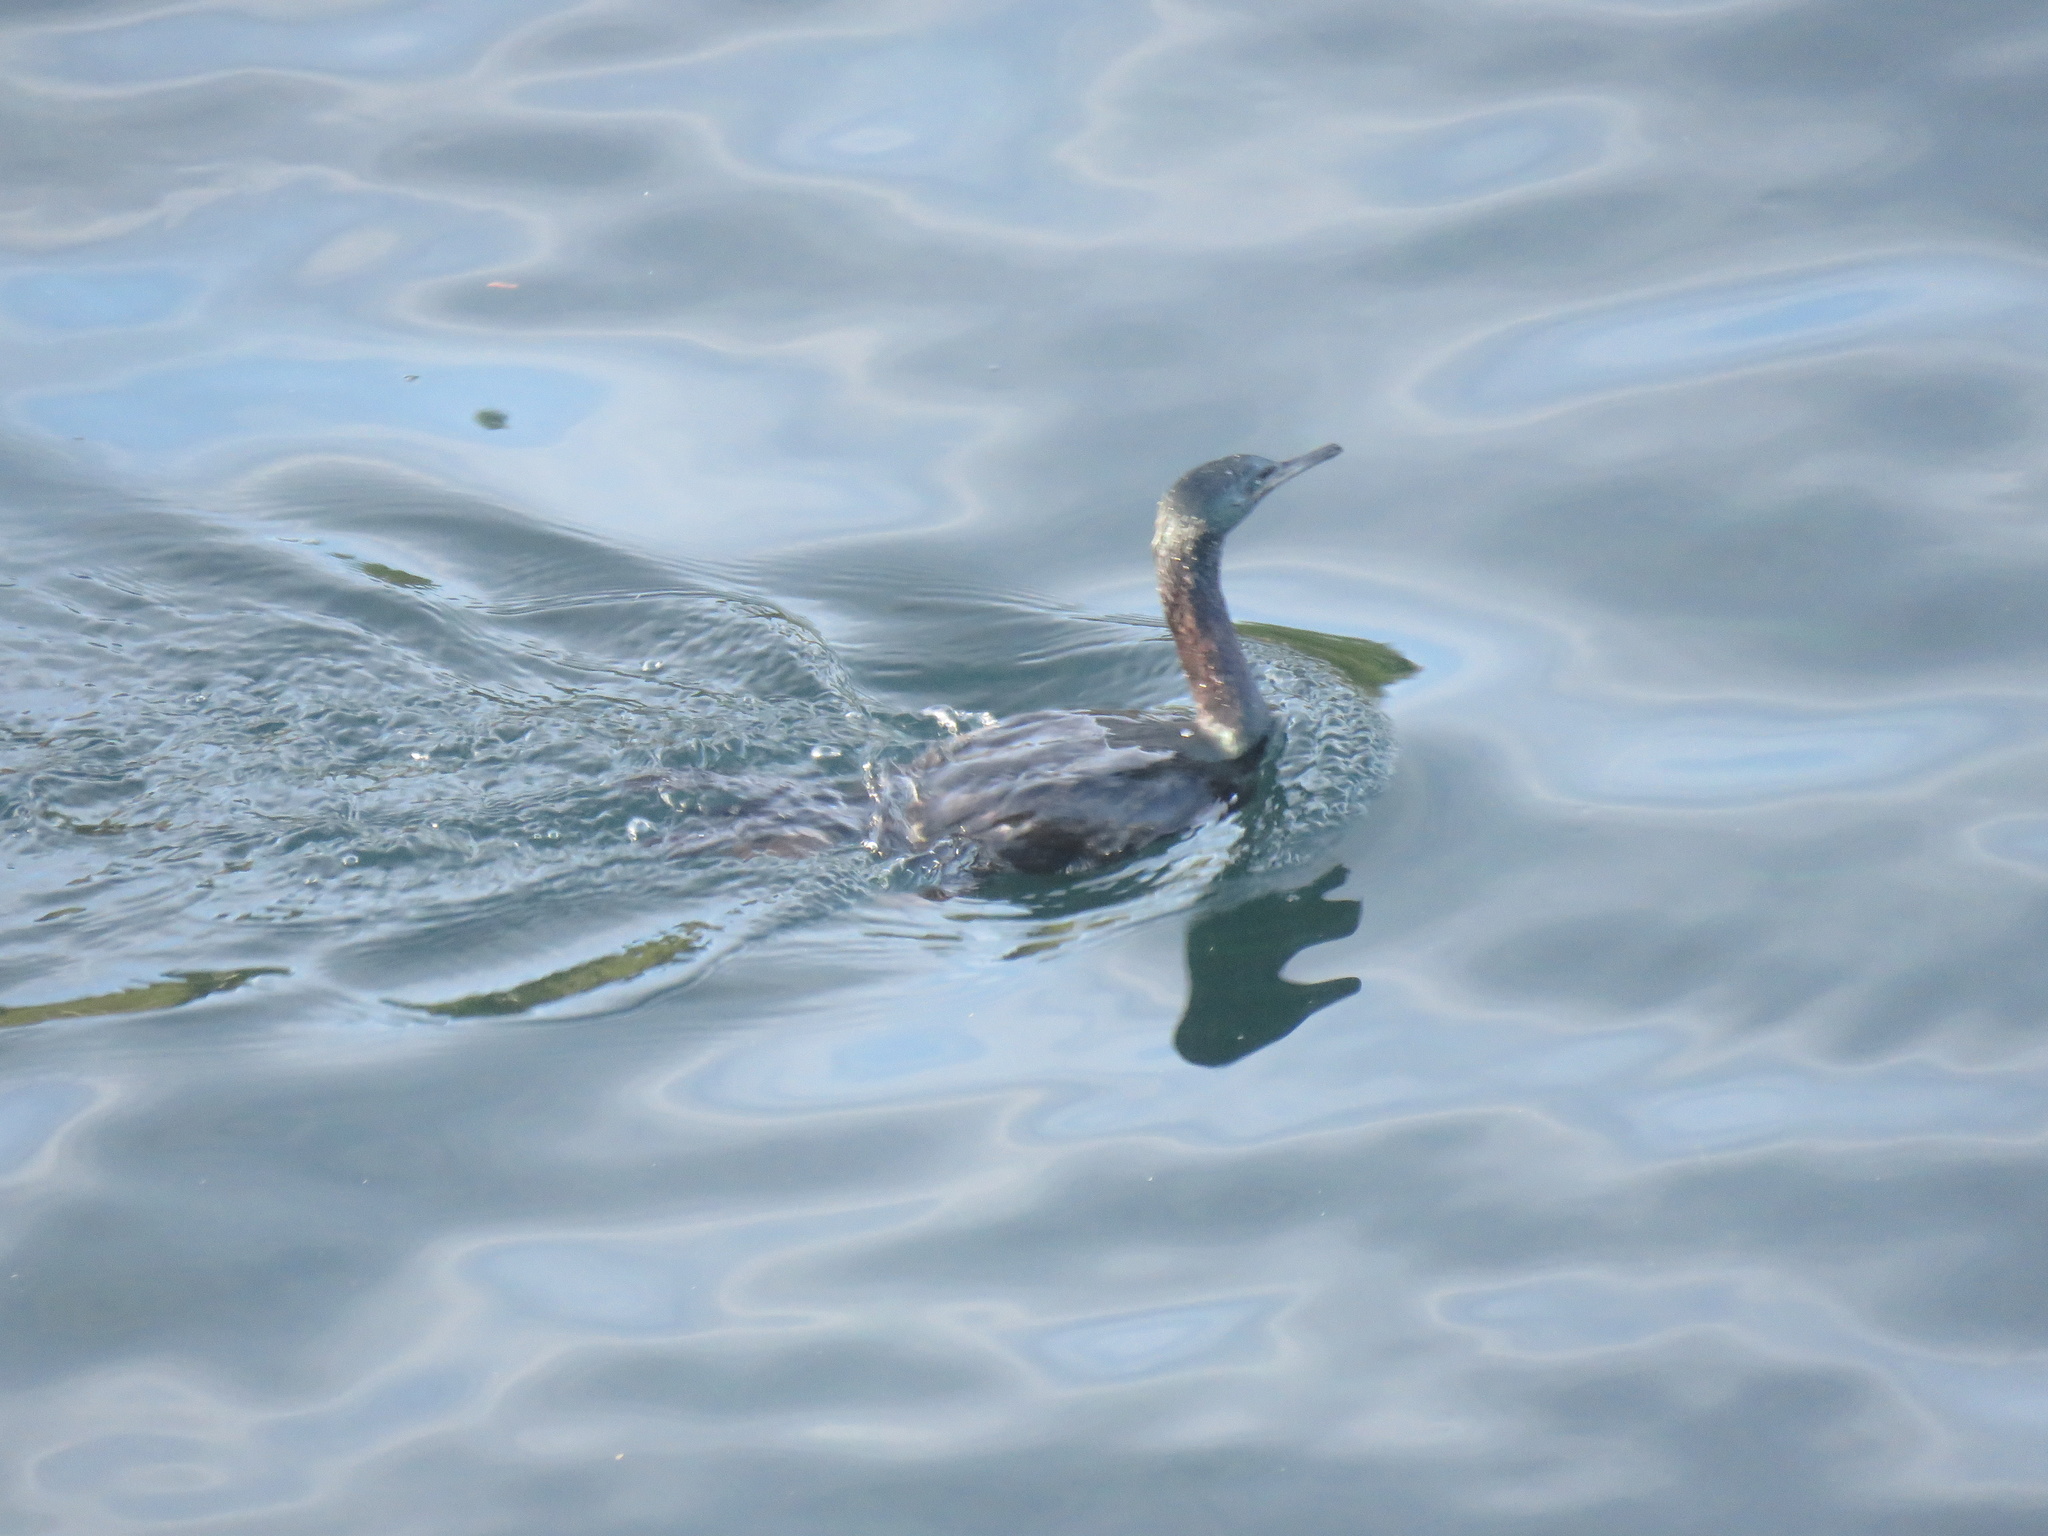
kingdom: Animalia
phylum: Chordata
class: Aves
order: Suliformes
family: Phalacrocoracidae
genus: Phalacrocorax
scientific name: Phalacrocorax pelagicus
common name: Pelagic cormorant
